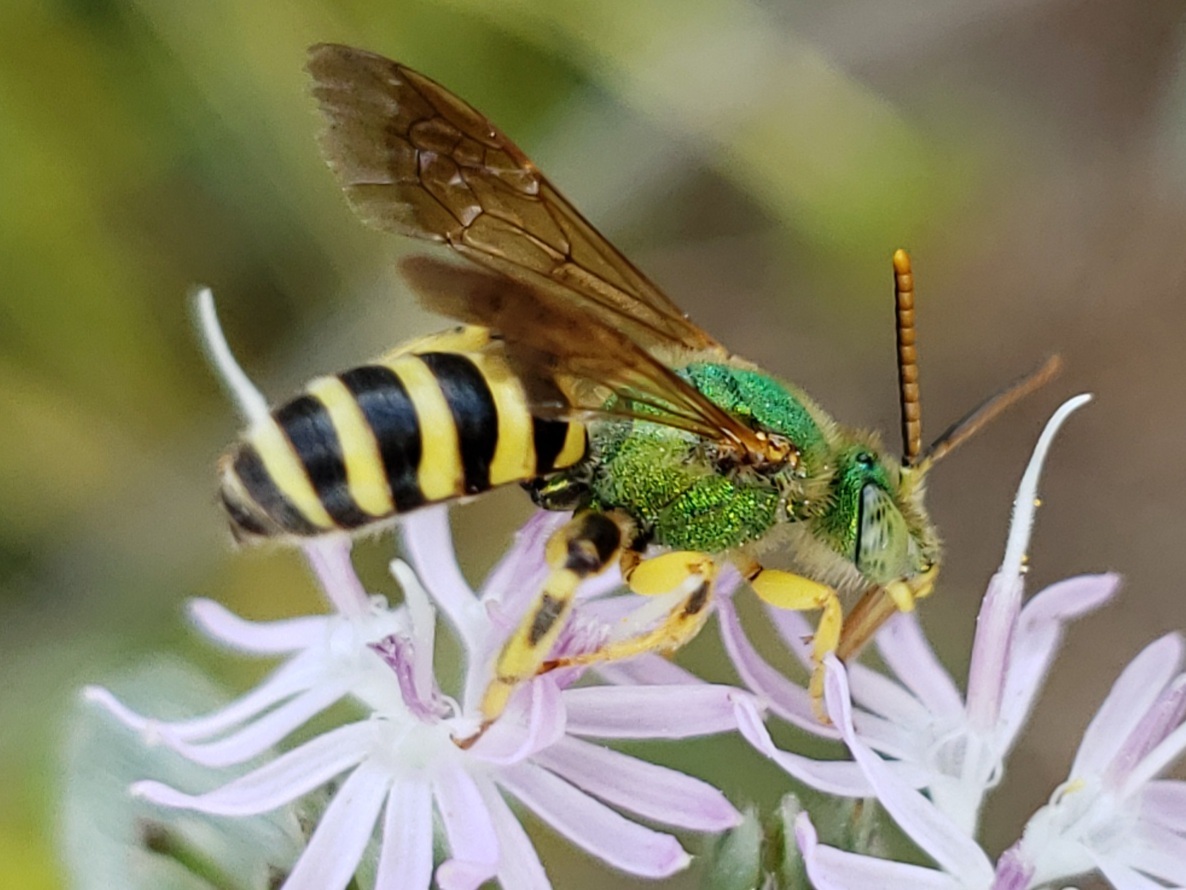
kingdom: Animalia
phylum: Arthropoda
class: Insecta
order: Hymenoptera
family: Halictidae
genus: Agapostemon
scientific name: Agapostemon splendens
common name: Brown-winged striped sweat bee
